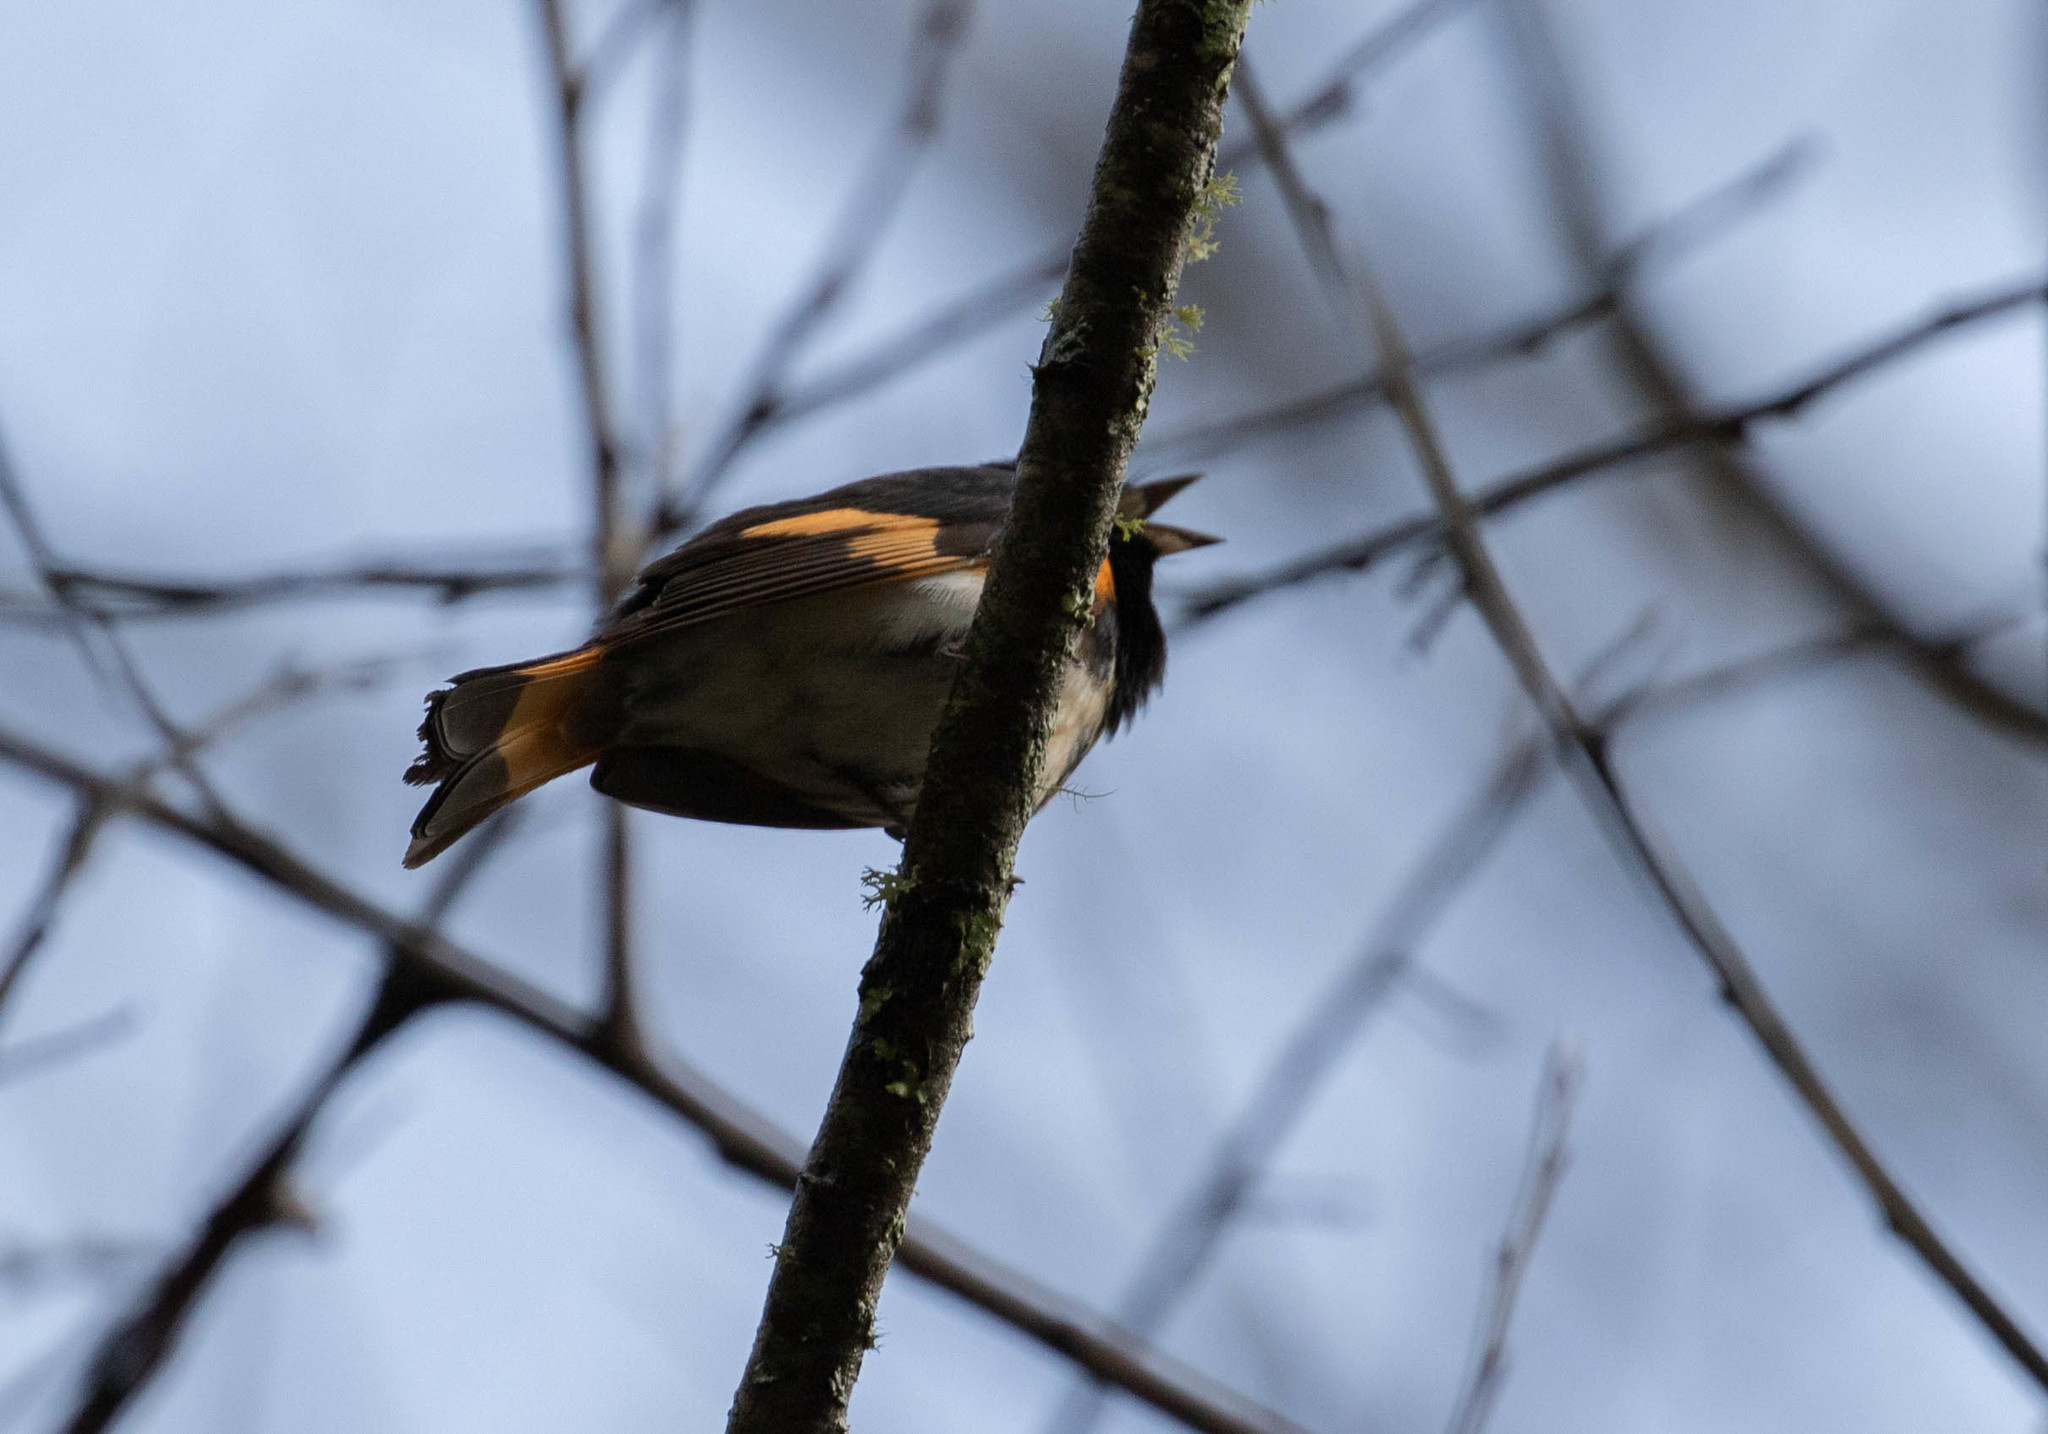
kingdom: Animalia
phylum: Chordata
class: Aves
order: Passeriformes
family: Parulidae
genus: Setophaga
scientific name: Setophaga ruticilla
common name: American redstart
